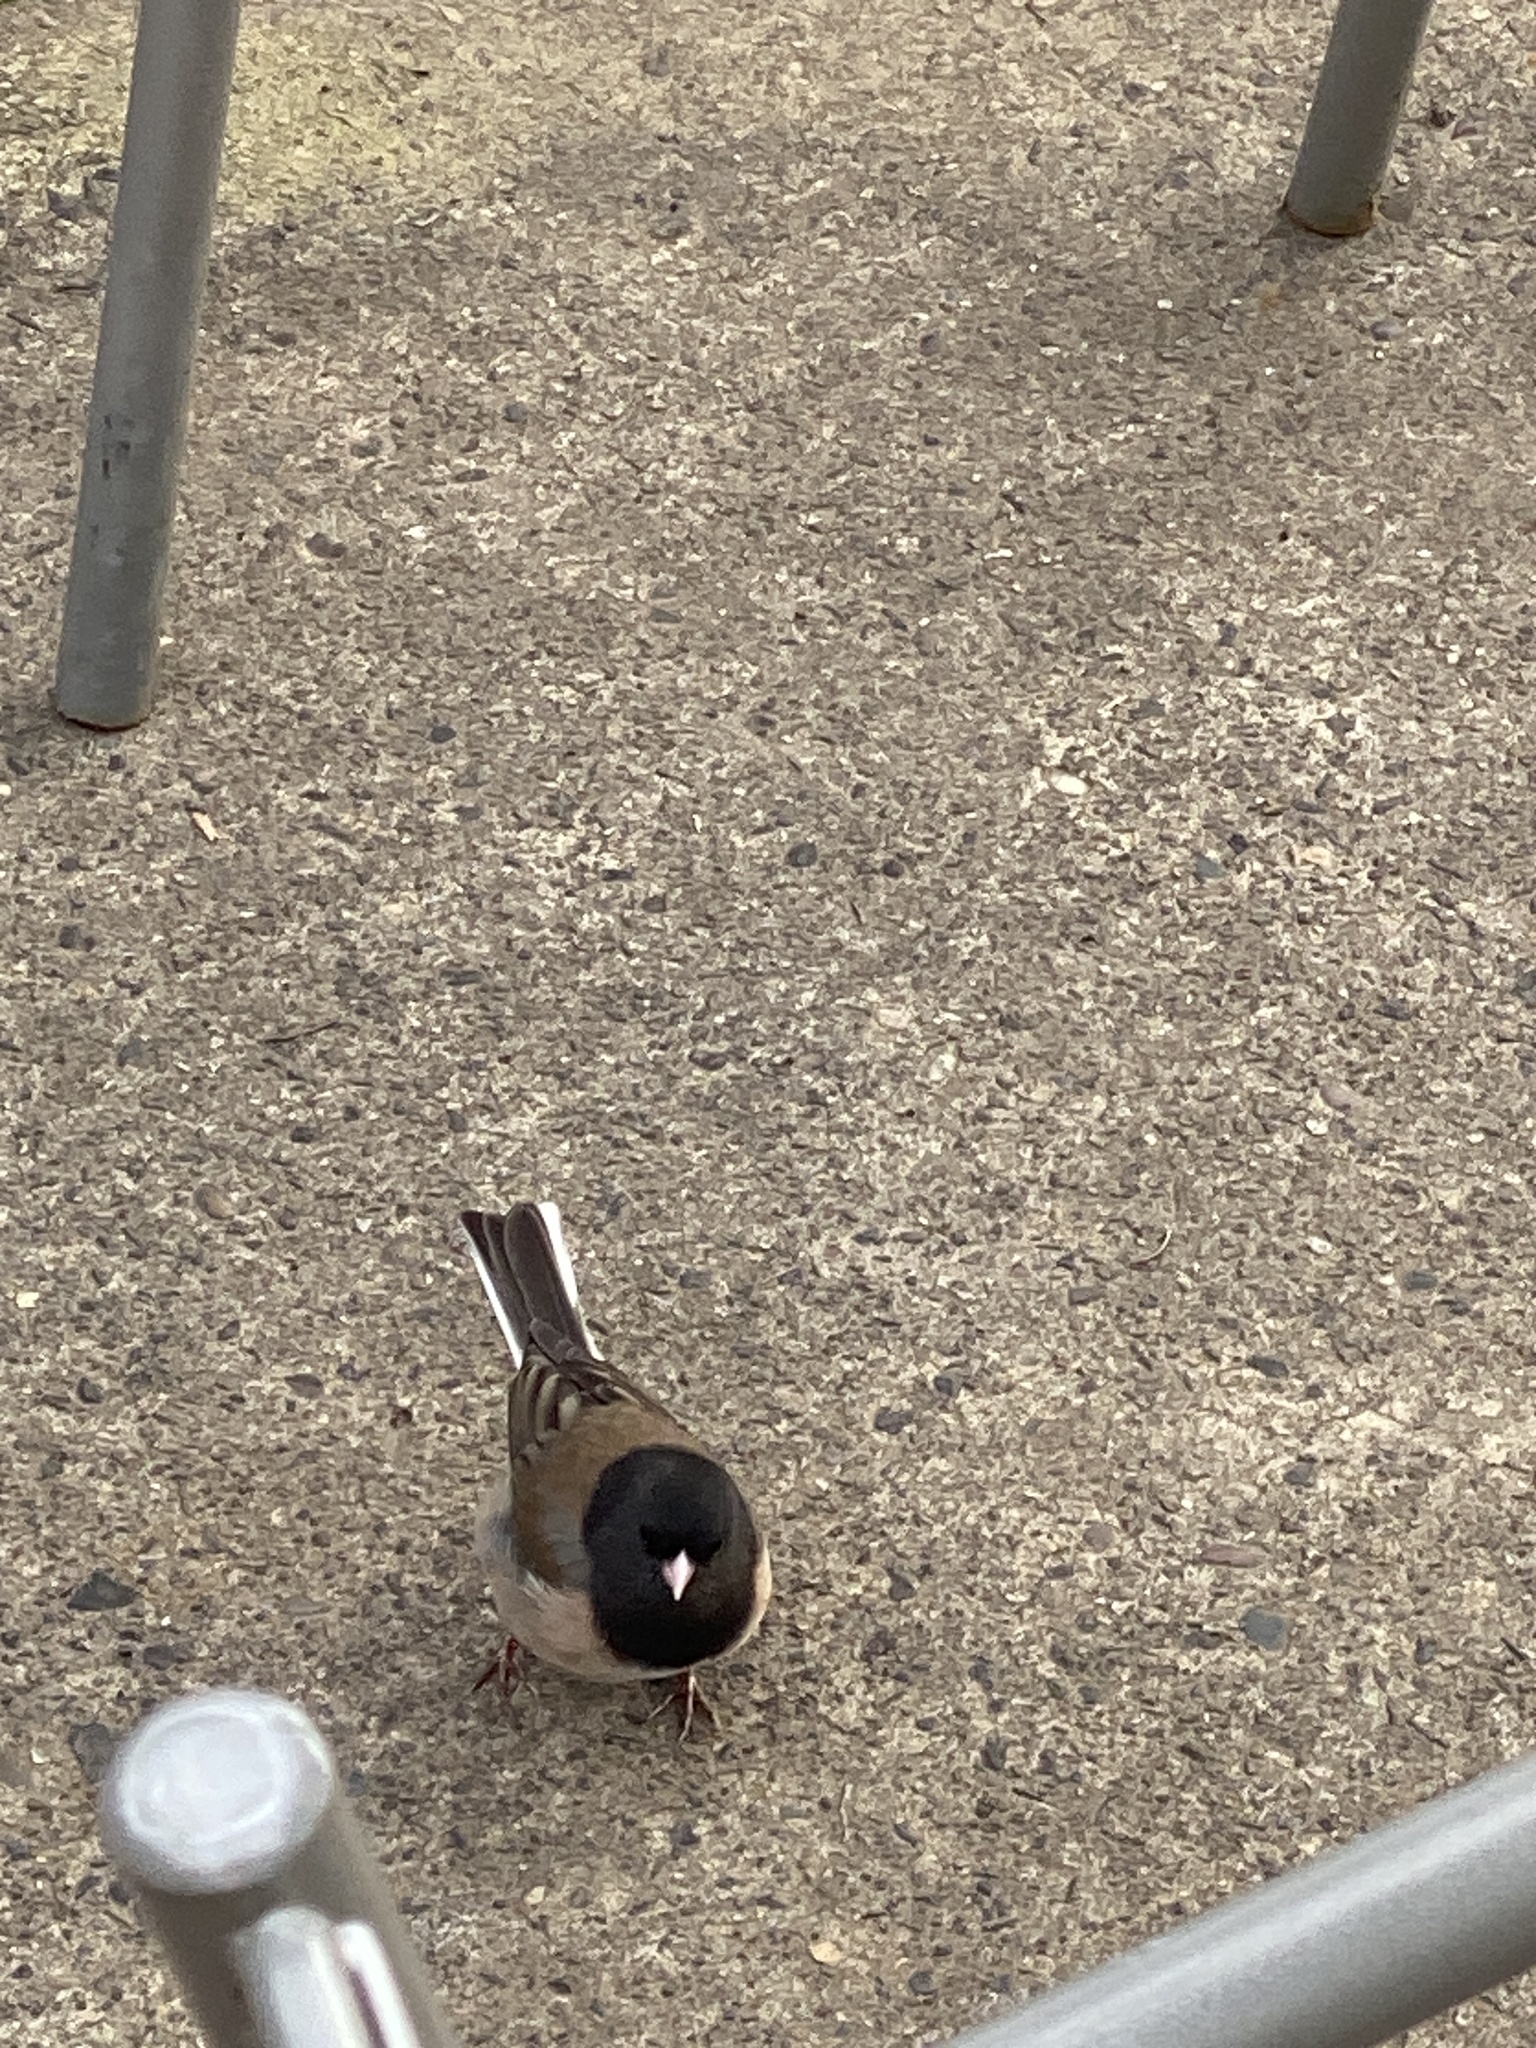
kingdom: Animalia
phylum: Chordata
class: Aves
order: Passeriformes
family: Passerellidae
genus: Junco
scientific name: Junco hyemalis
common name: Dark-eyed junco
